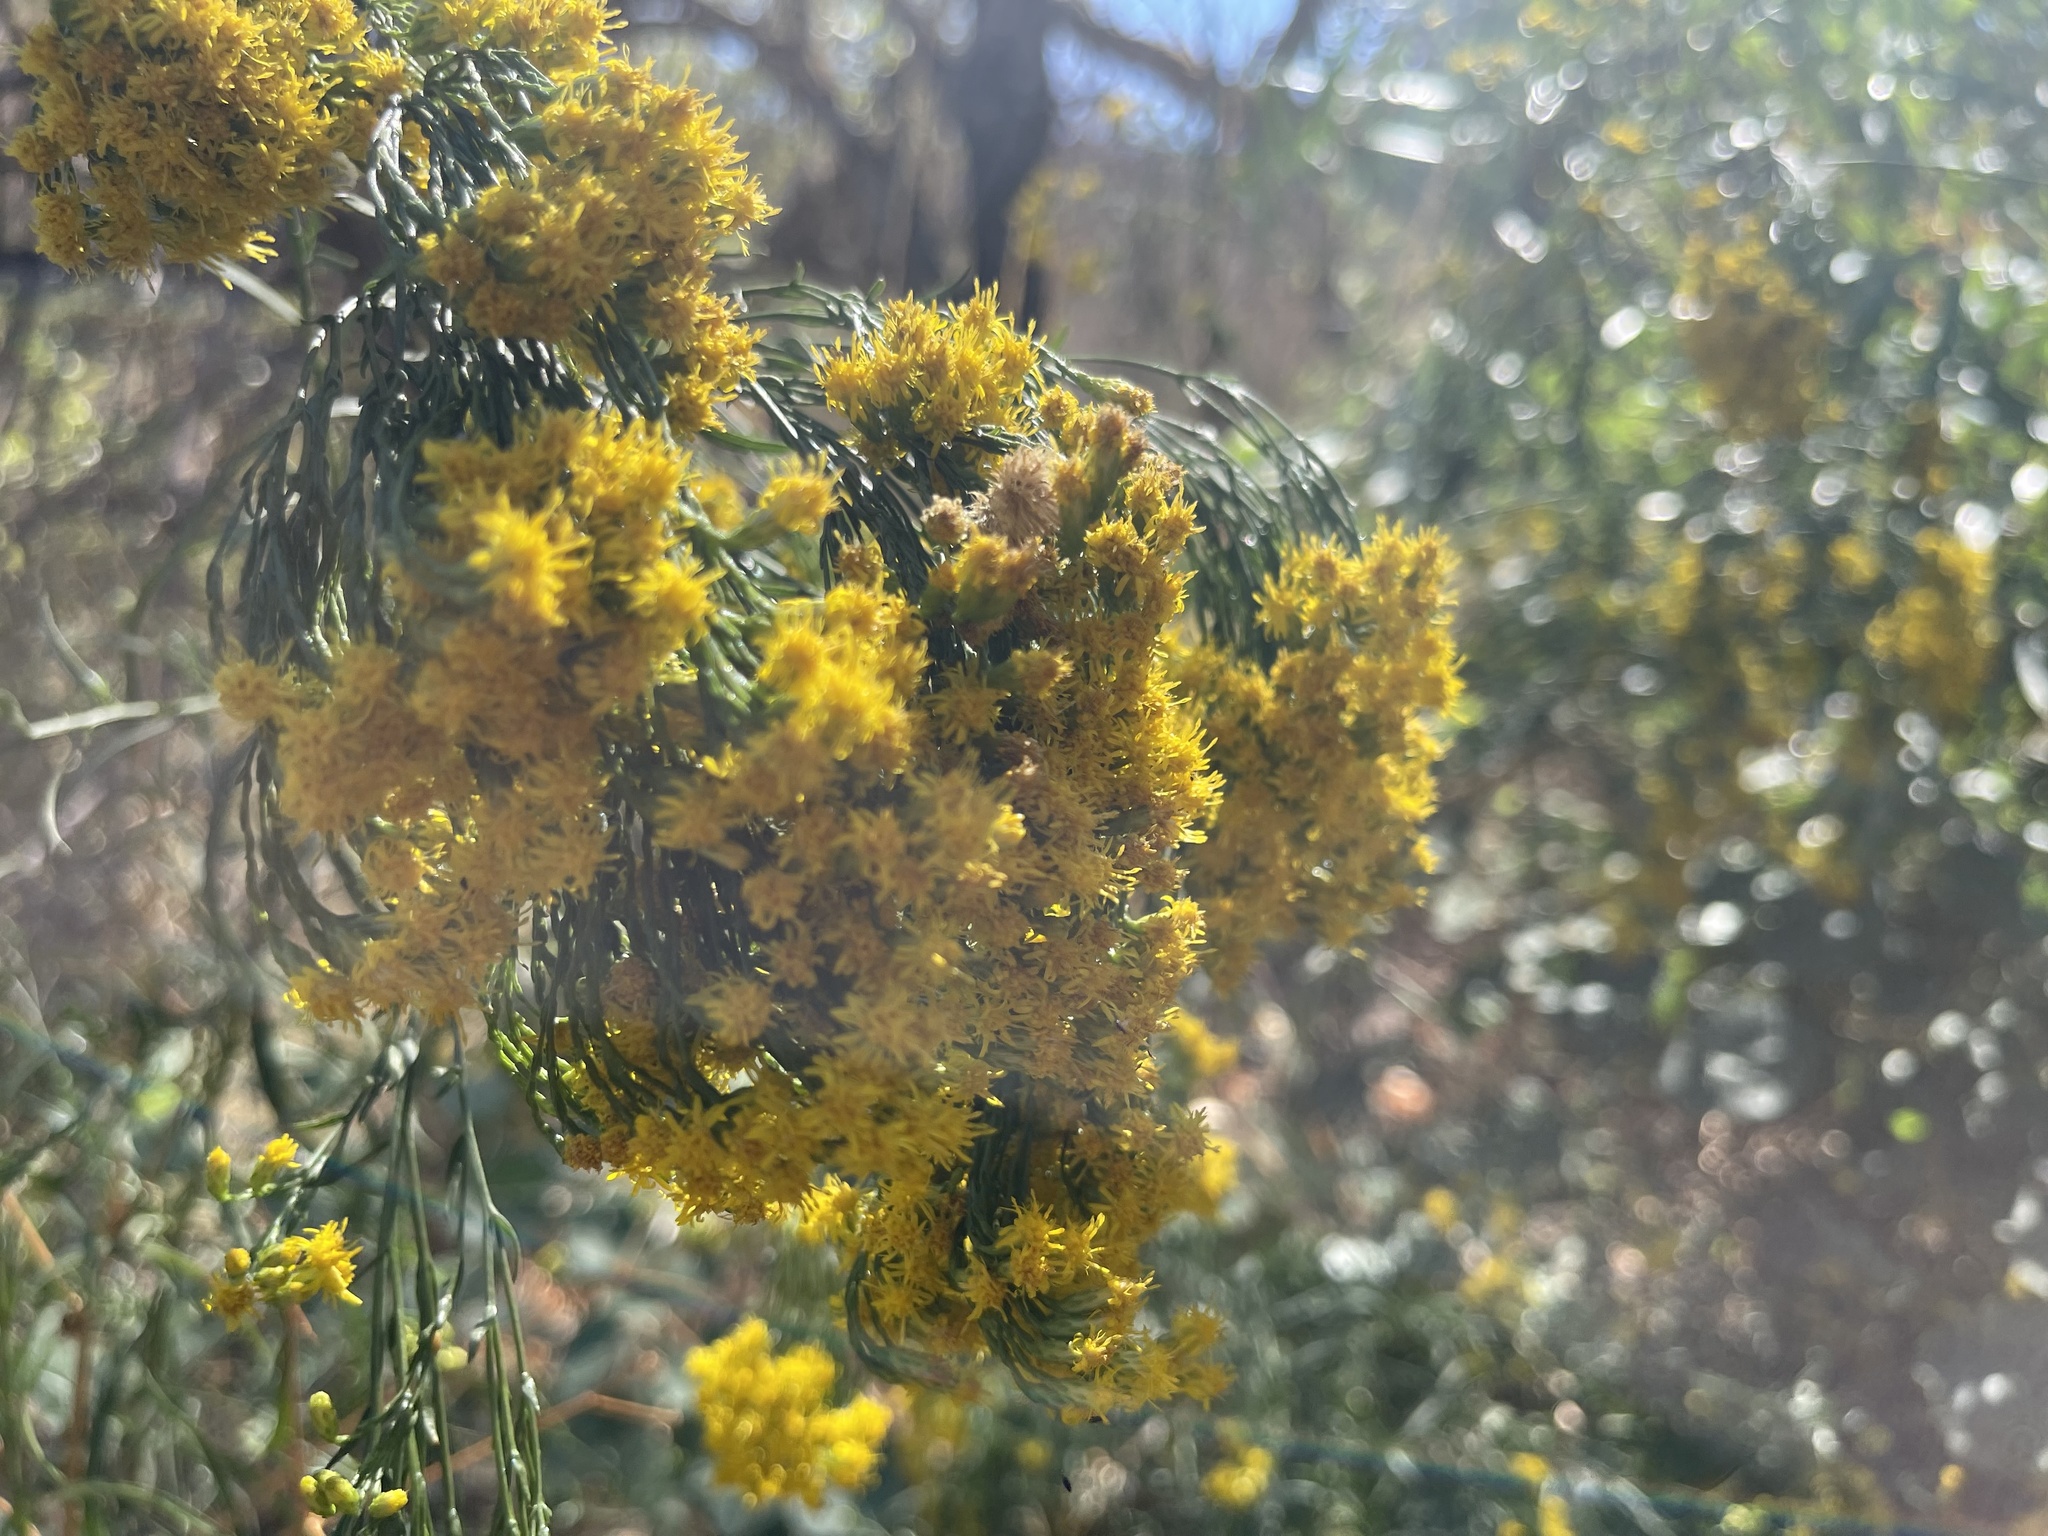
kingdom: Plantae
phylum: Tracheophyta
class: Magnoliopsida
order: Asterales
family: Asteraceae
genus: Euthamia
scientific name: Euthamia occidentalis
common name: Western goldentop
